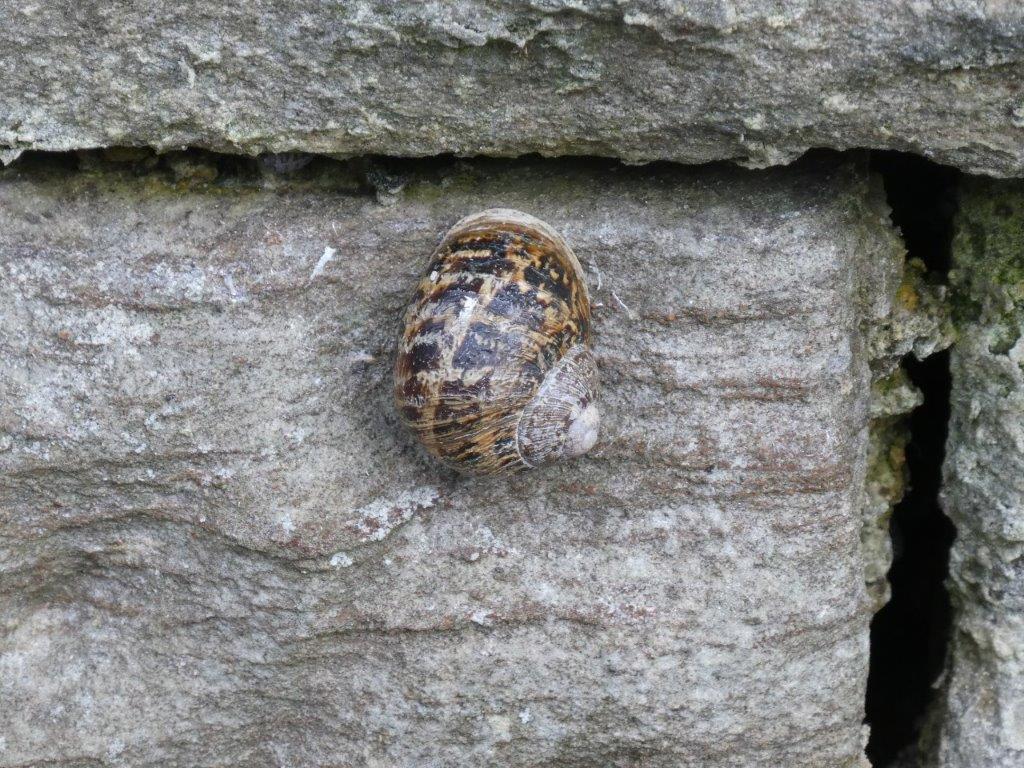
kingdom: Animalia
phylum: Mollusca
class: Gastropoda
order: Stylommatophora
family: Helicidae
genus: Cornu
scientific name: Cornu aspersum
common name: Brown garden snail
